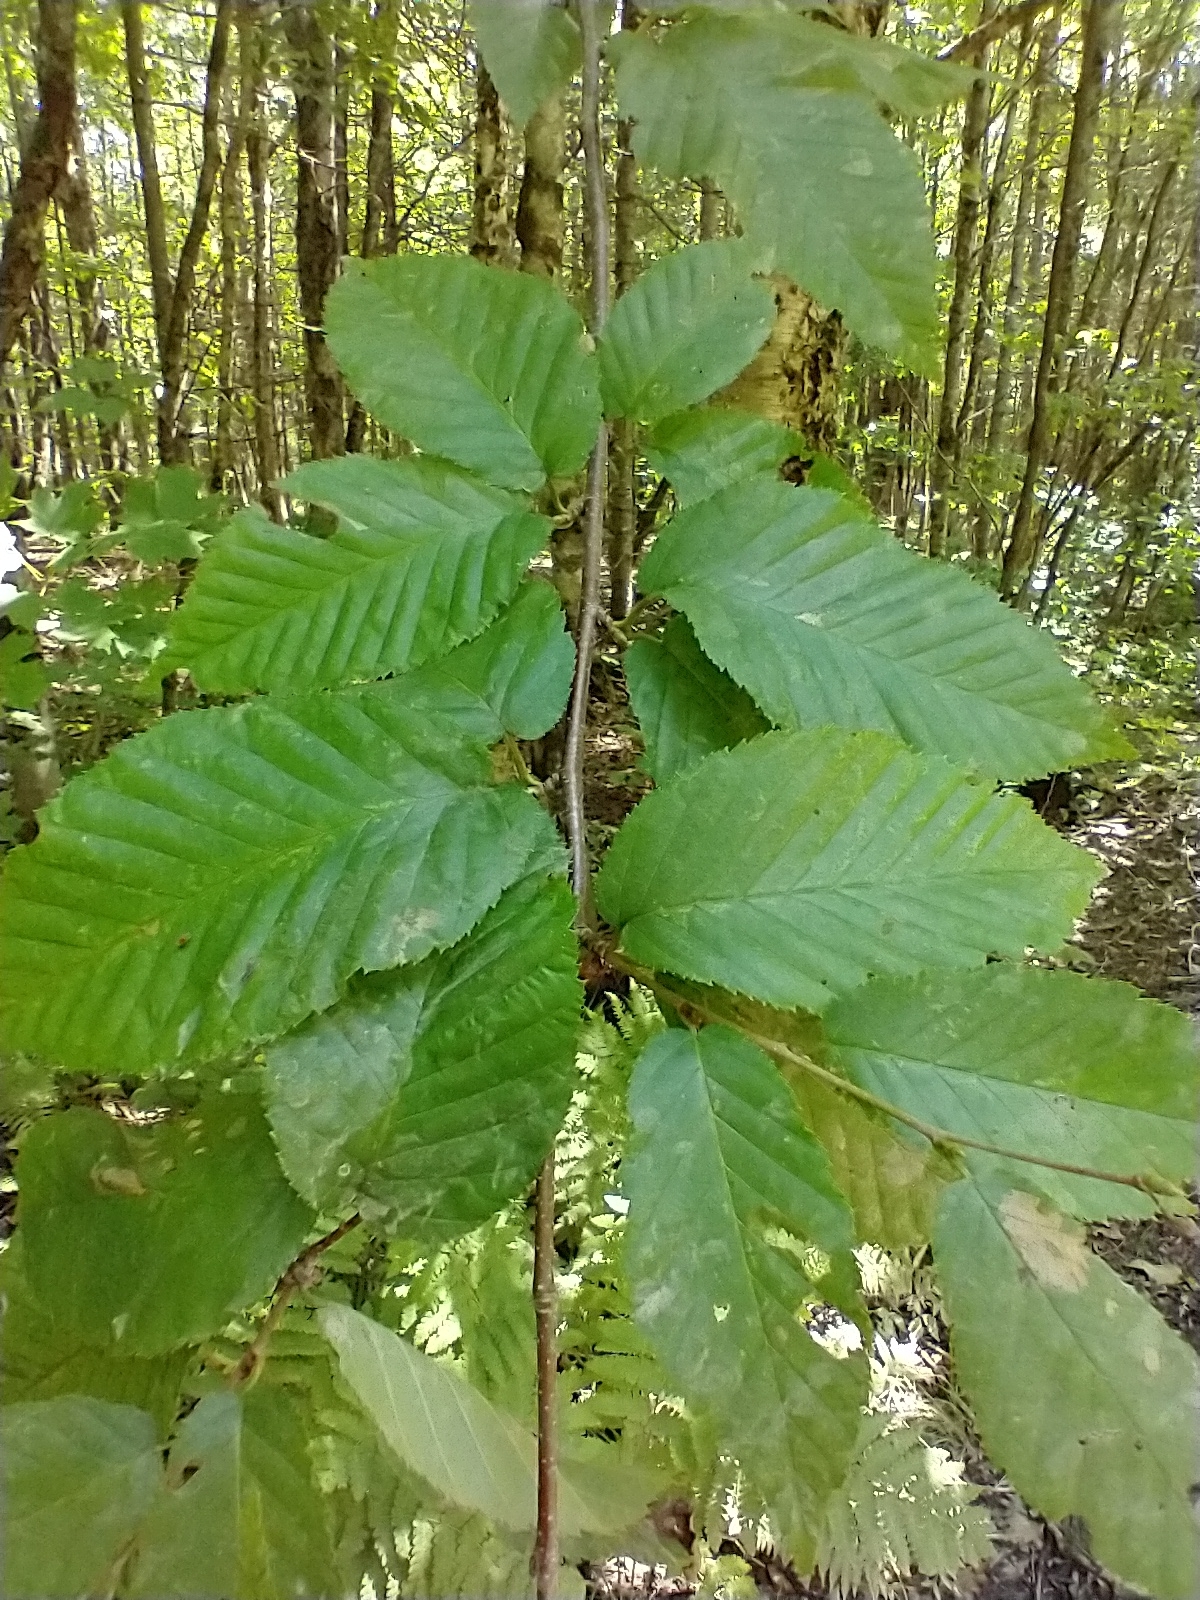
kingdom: Plantae
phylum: Tracheophyta
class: Magnoliopsida
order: Fagales
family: Betulaceae
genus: Betula
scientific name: Betula alleghaniensis
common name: Yellow birch
